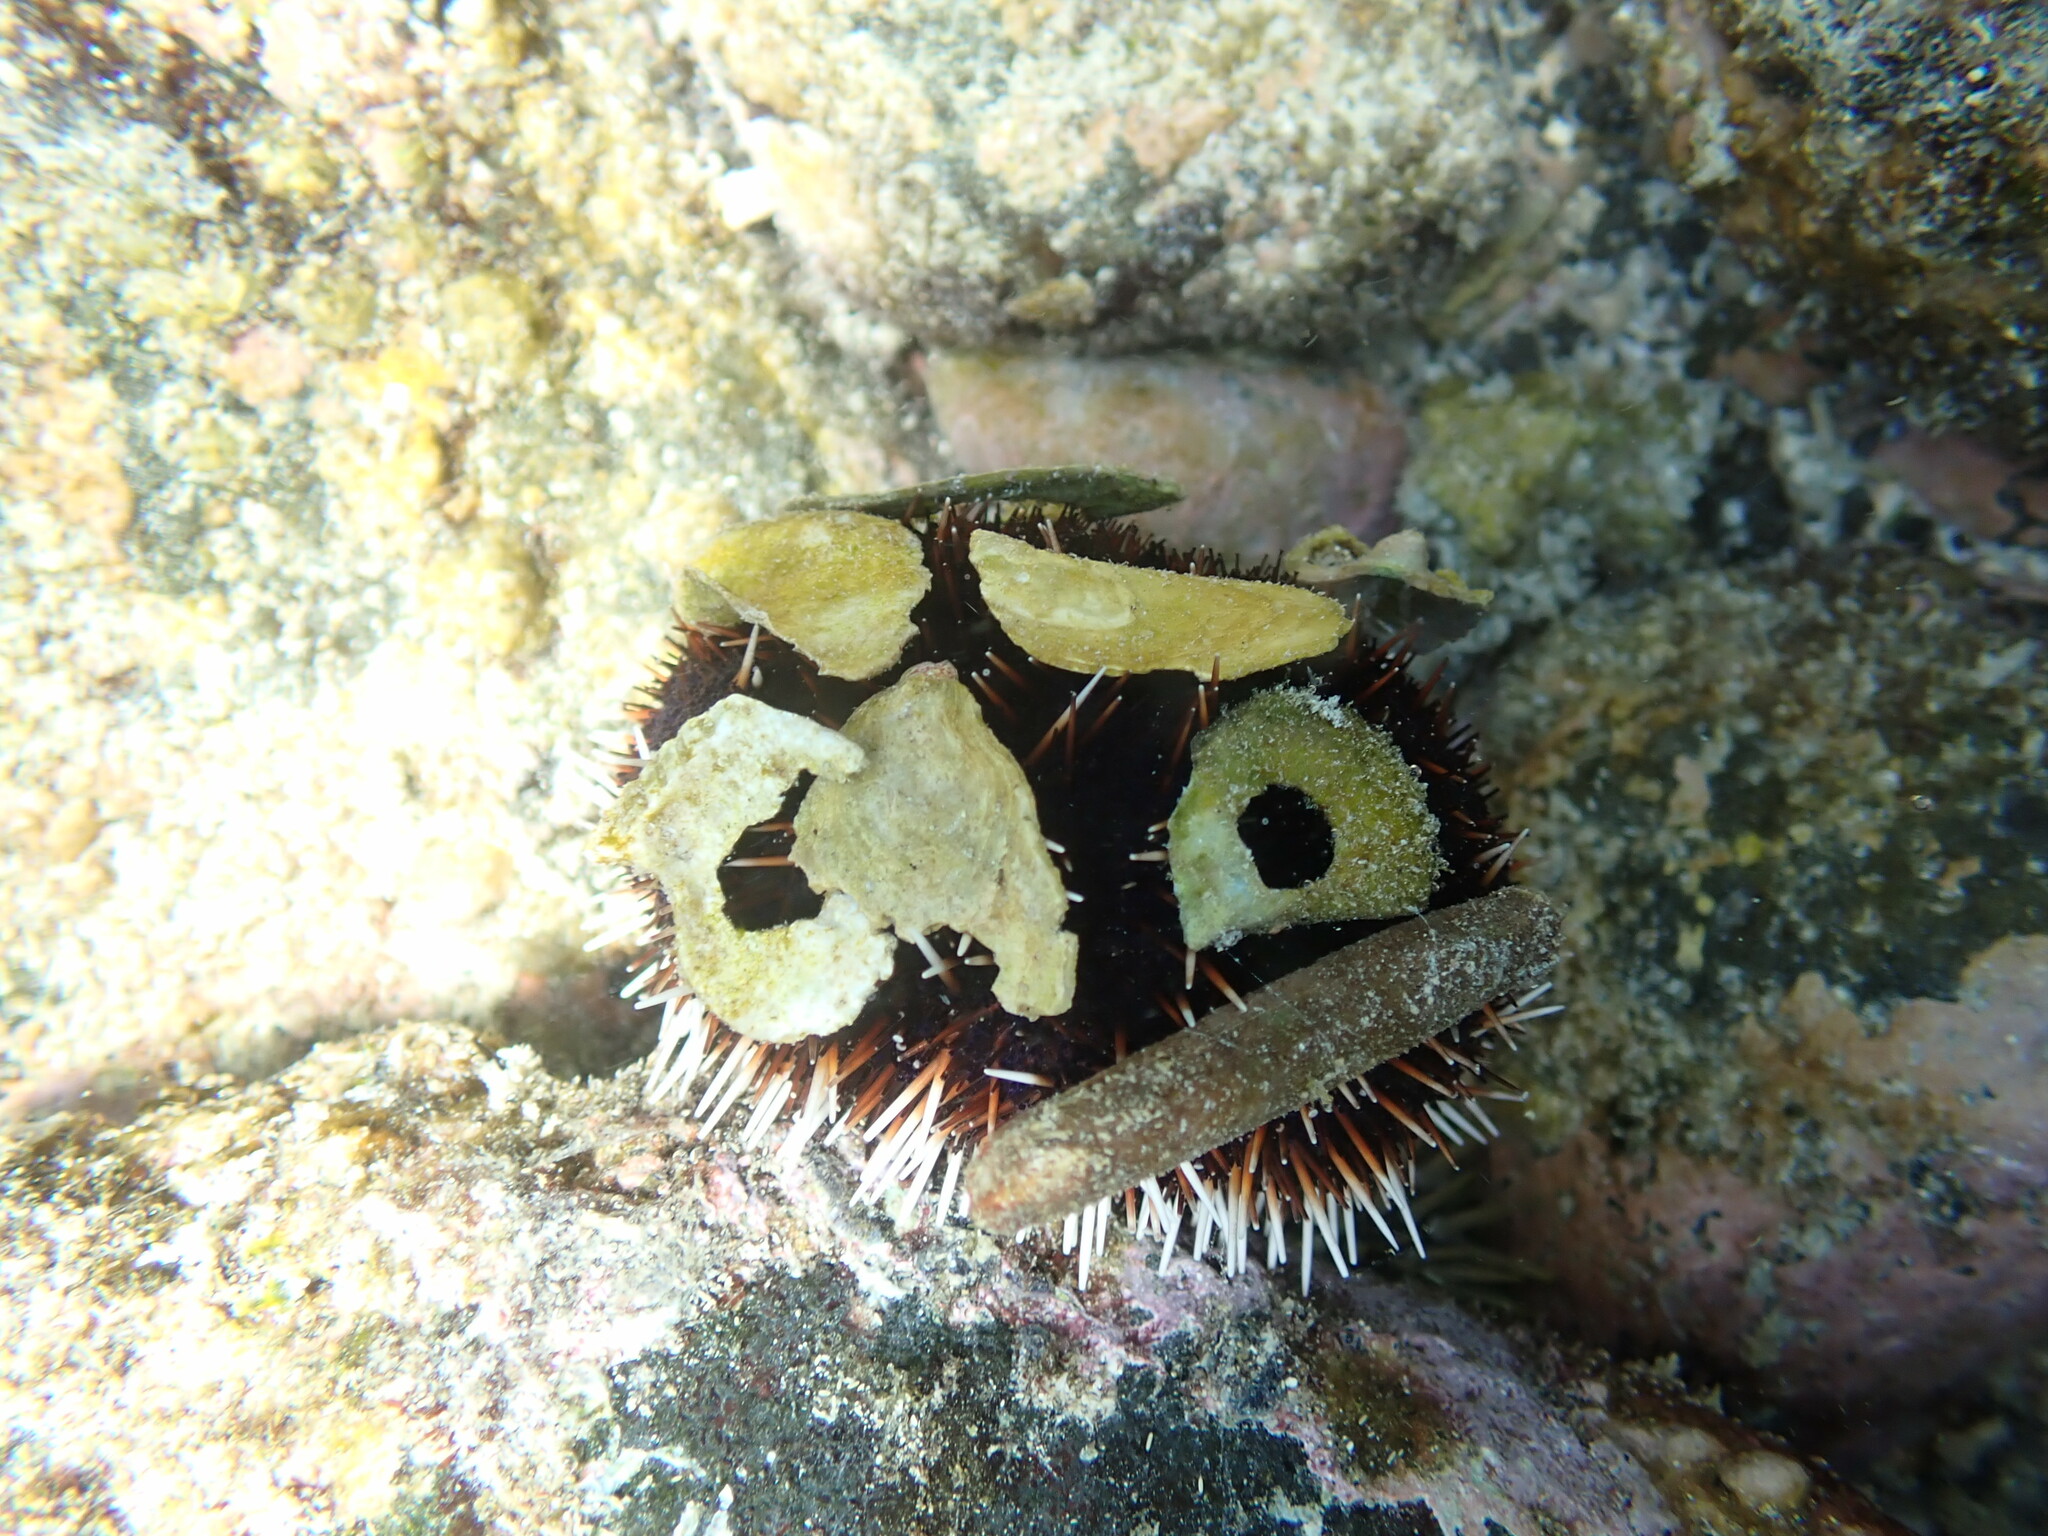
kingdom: Animalia
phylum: Echinodermata
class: Echinoidea
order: Camarodonta
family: Toxopneustidae
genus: Tripneustes
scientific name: Tripneustes gratilla
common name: Bischofsmützenseeigel
